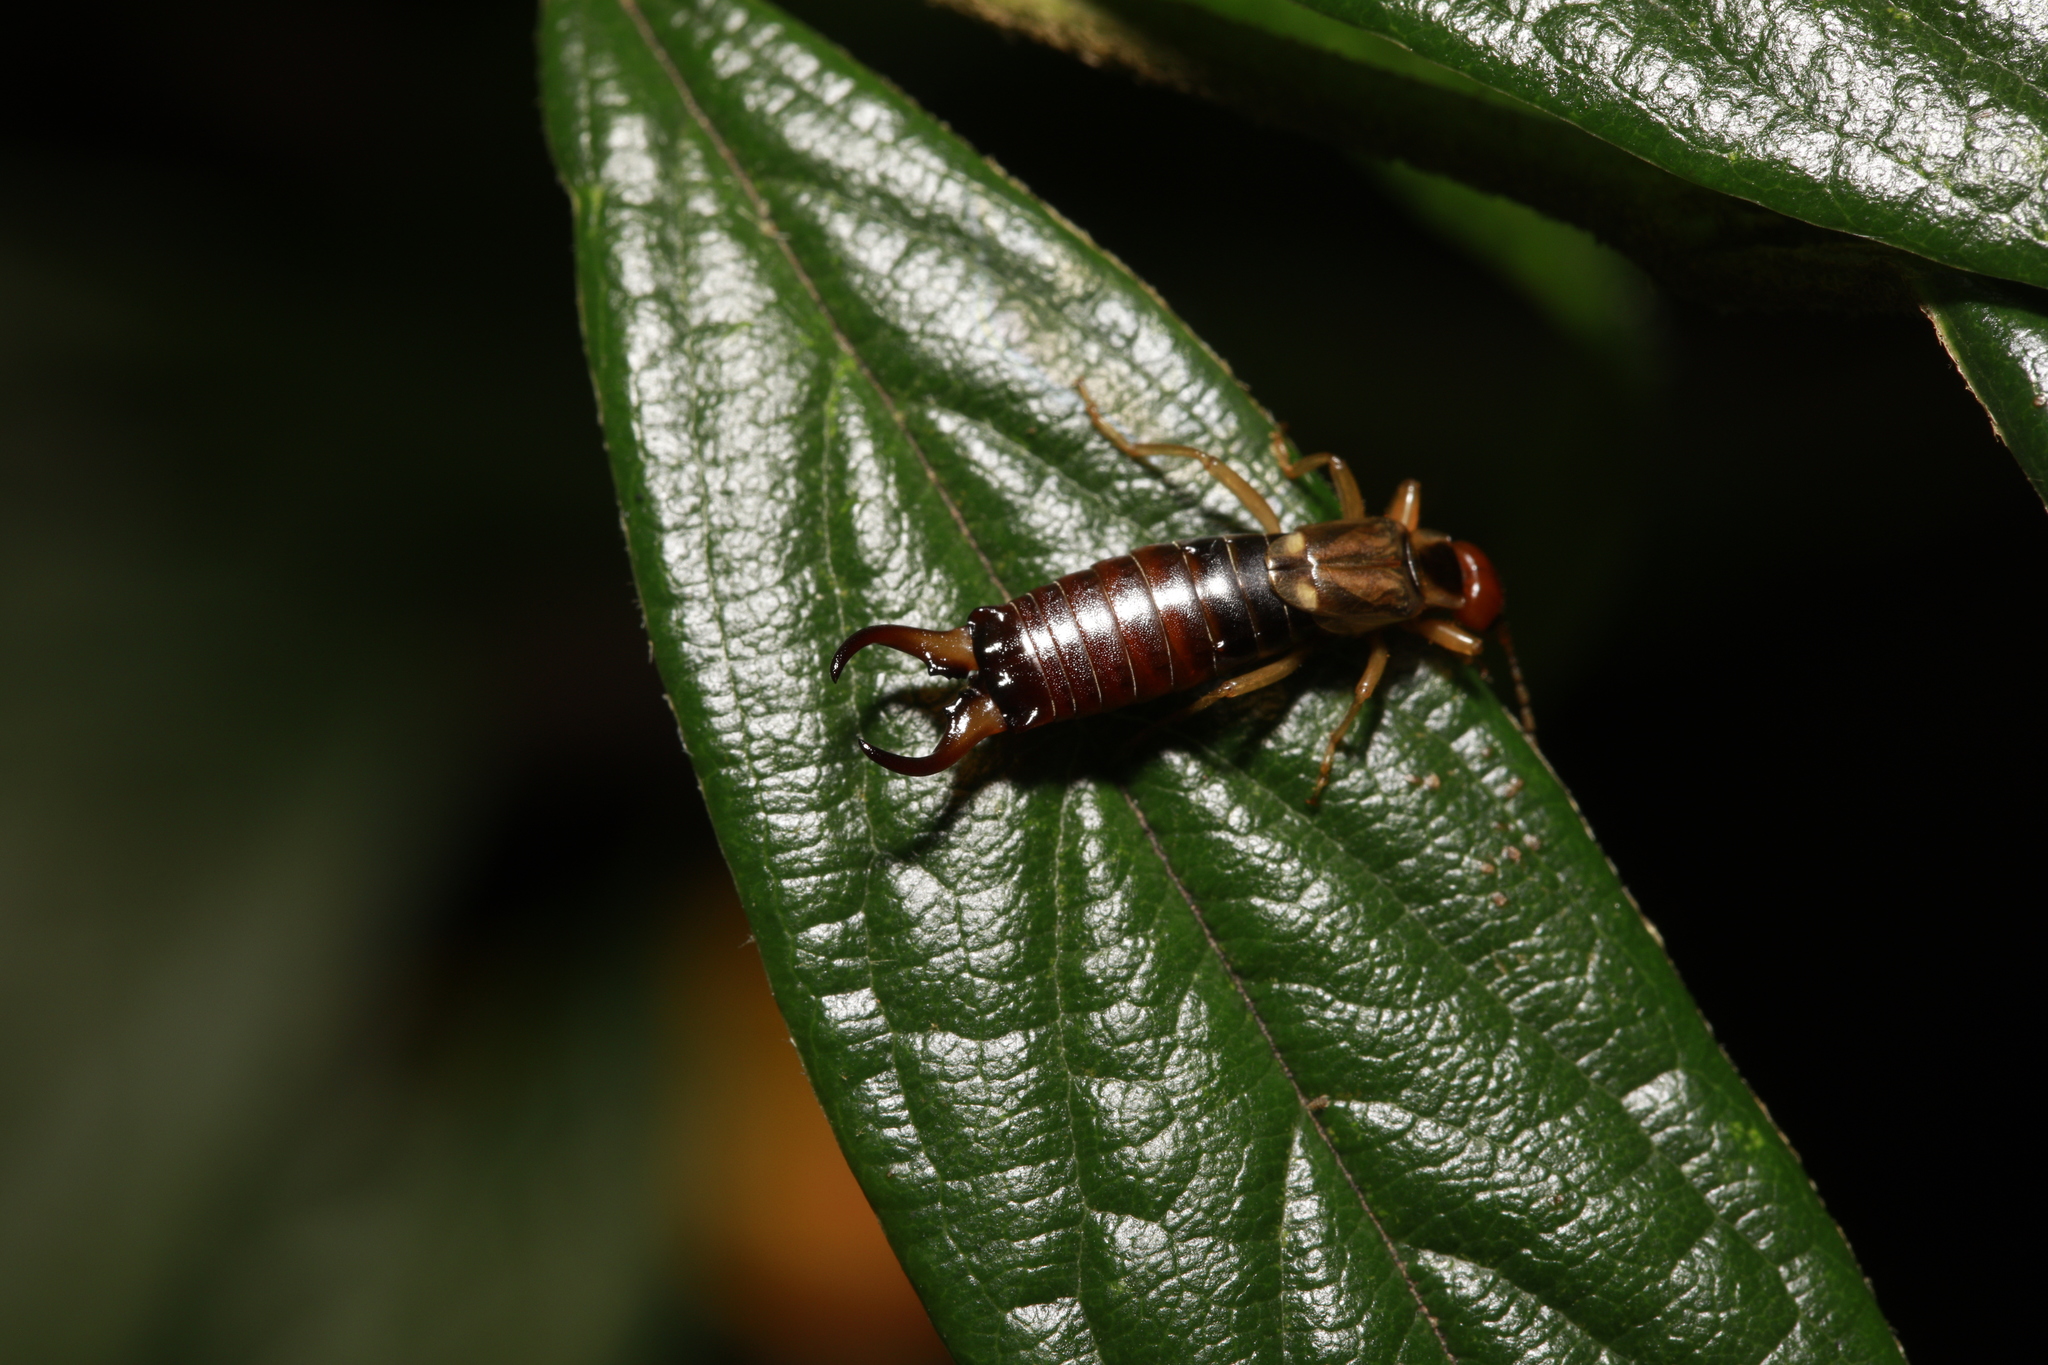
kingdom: Animalia
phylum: Arthropoda
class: Insecta
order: Dermaptera
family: Forficulidae
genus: Forficula
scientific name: Forficula
